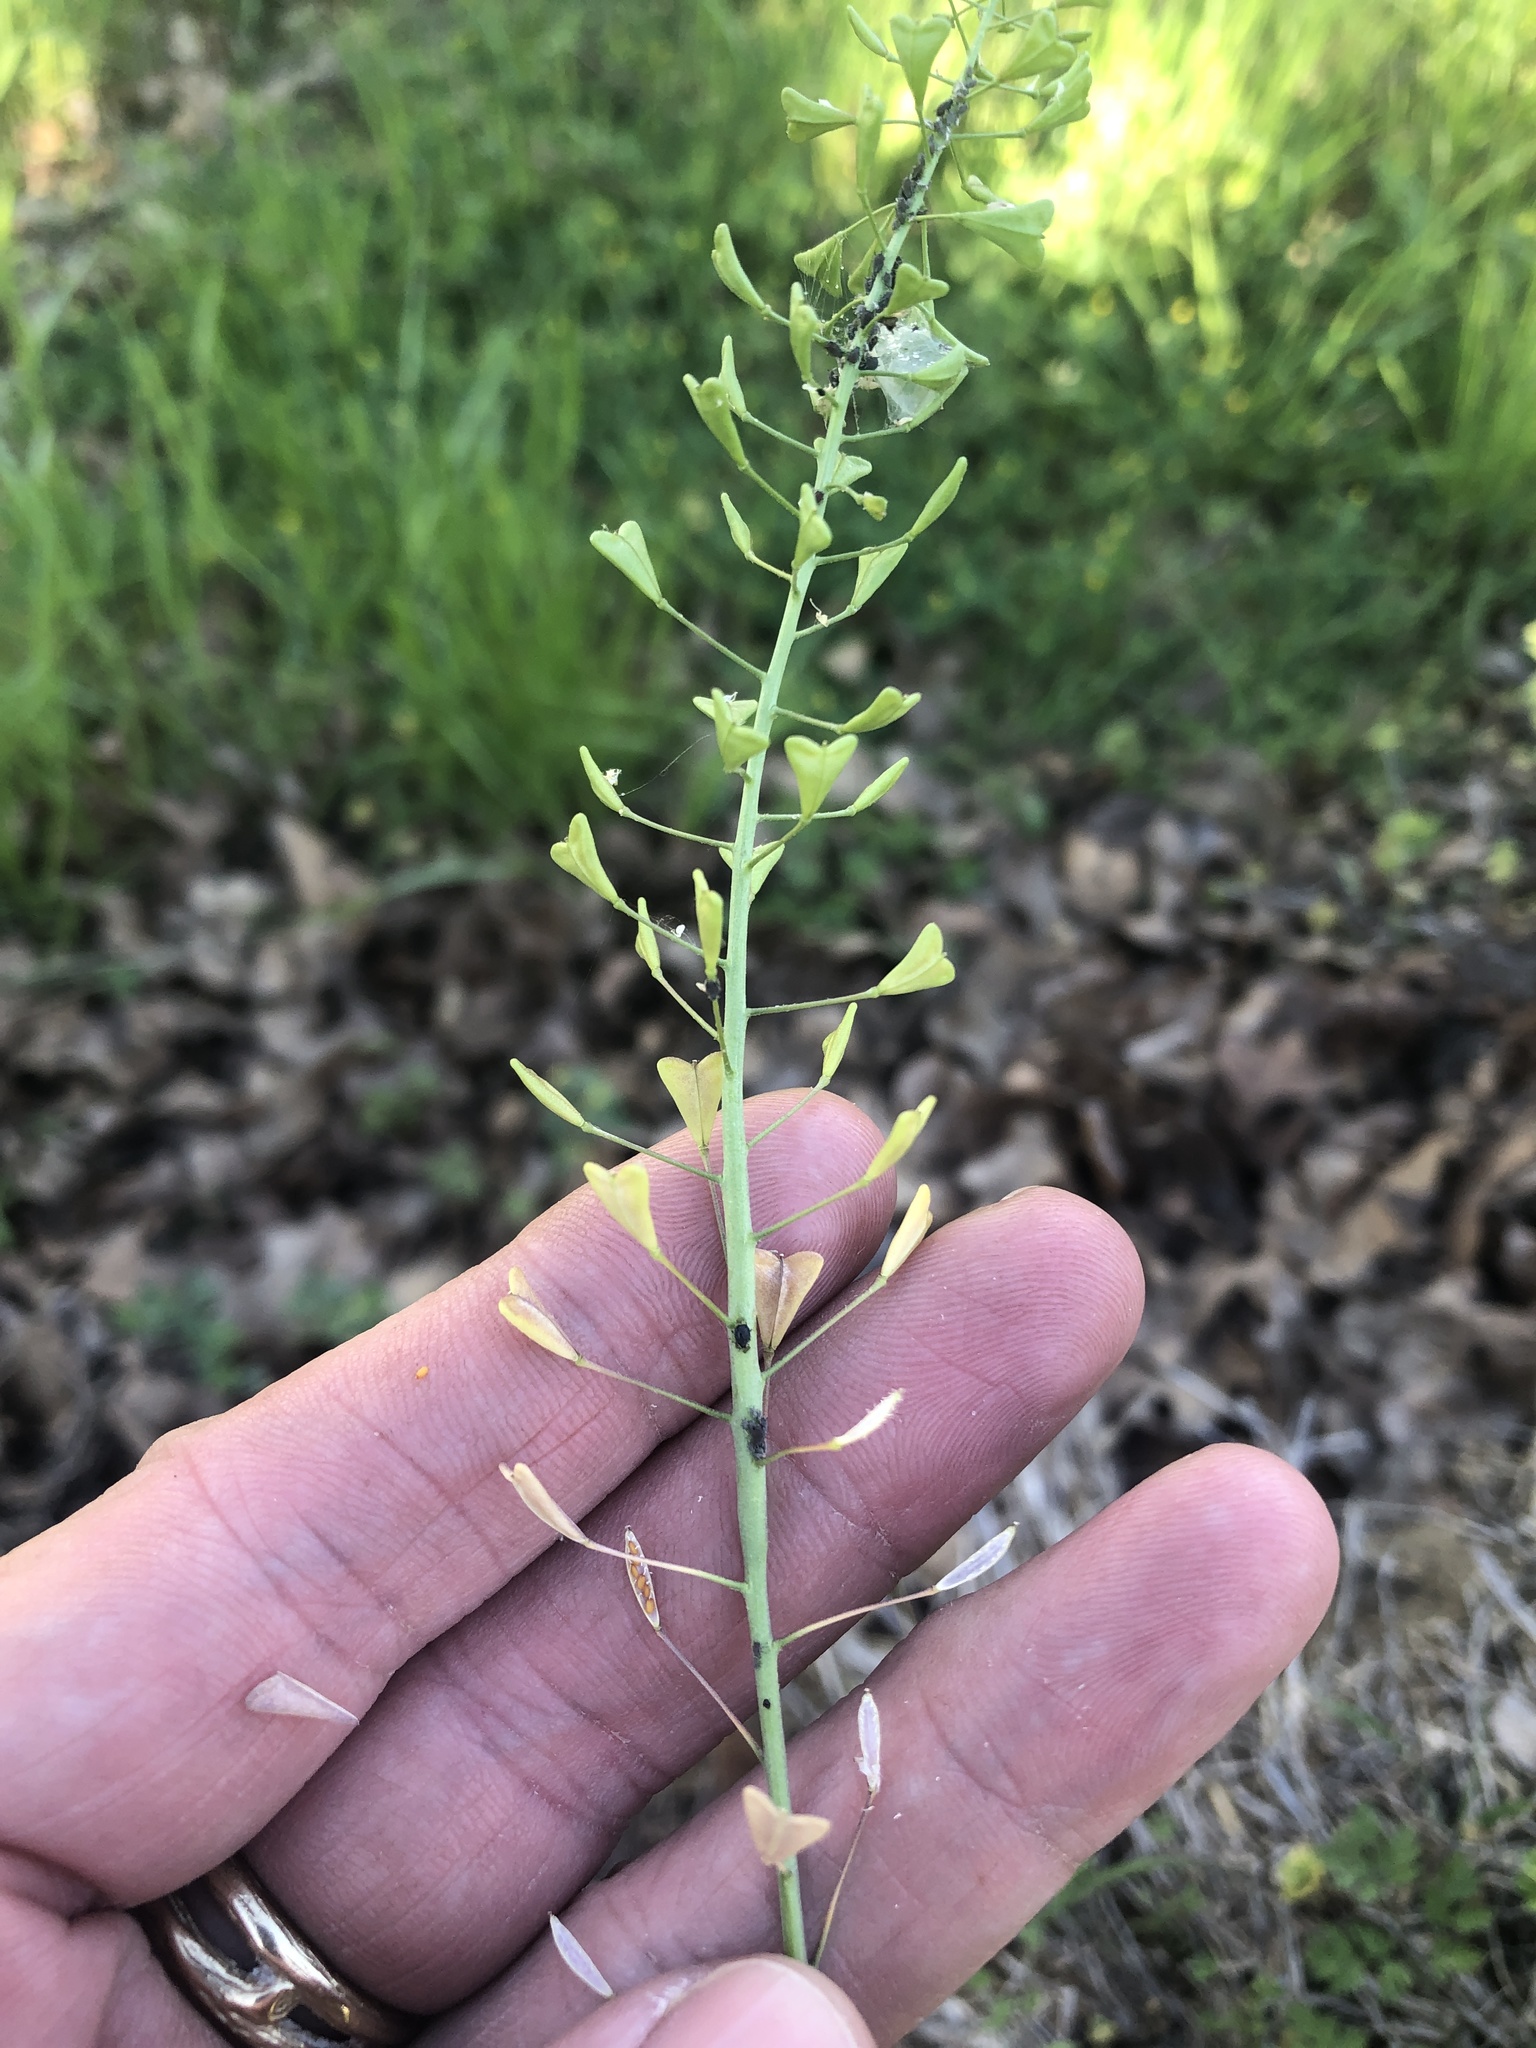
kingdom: Plantae
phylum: Tracheophyta
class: Magnoliopsida
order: Brassicales
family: Brassicaceae
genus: Capsella
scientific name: Capsella bursa-pastoris
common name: Shepherd's purse
